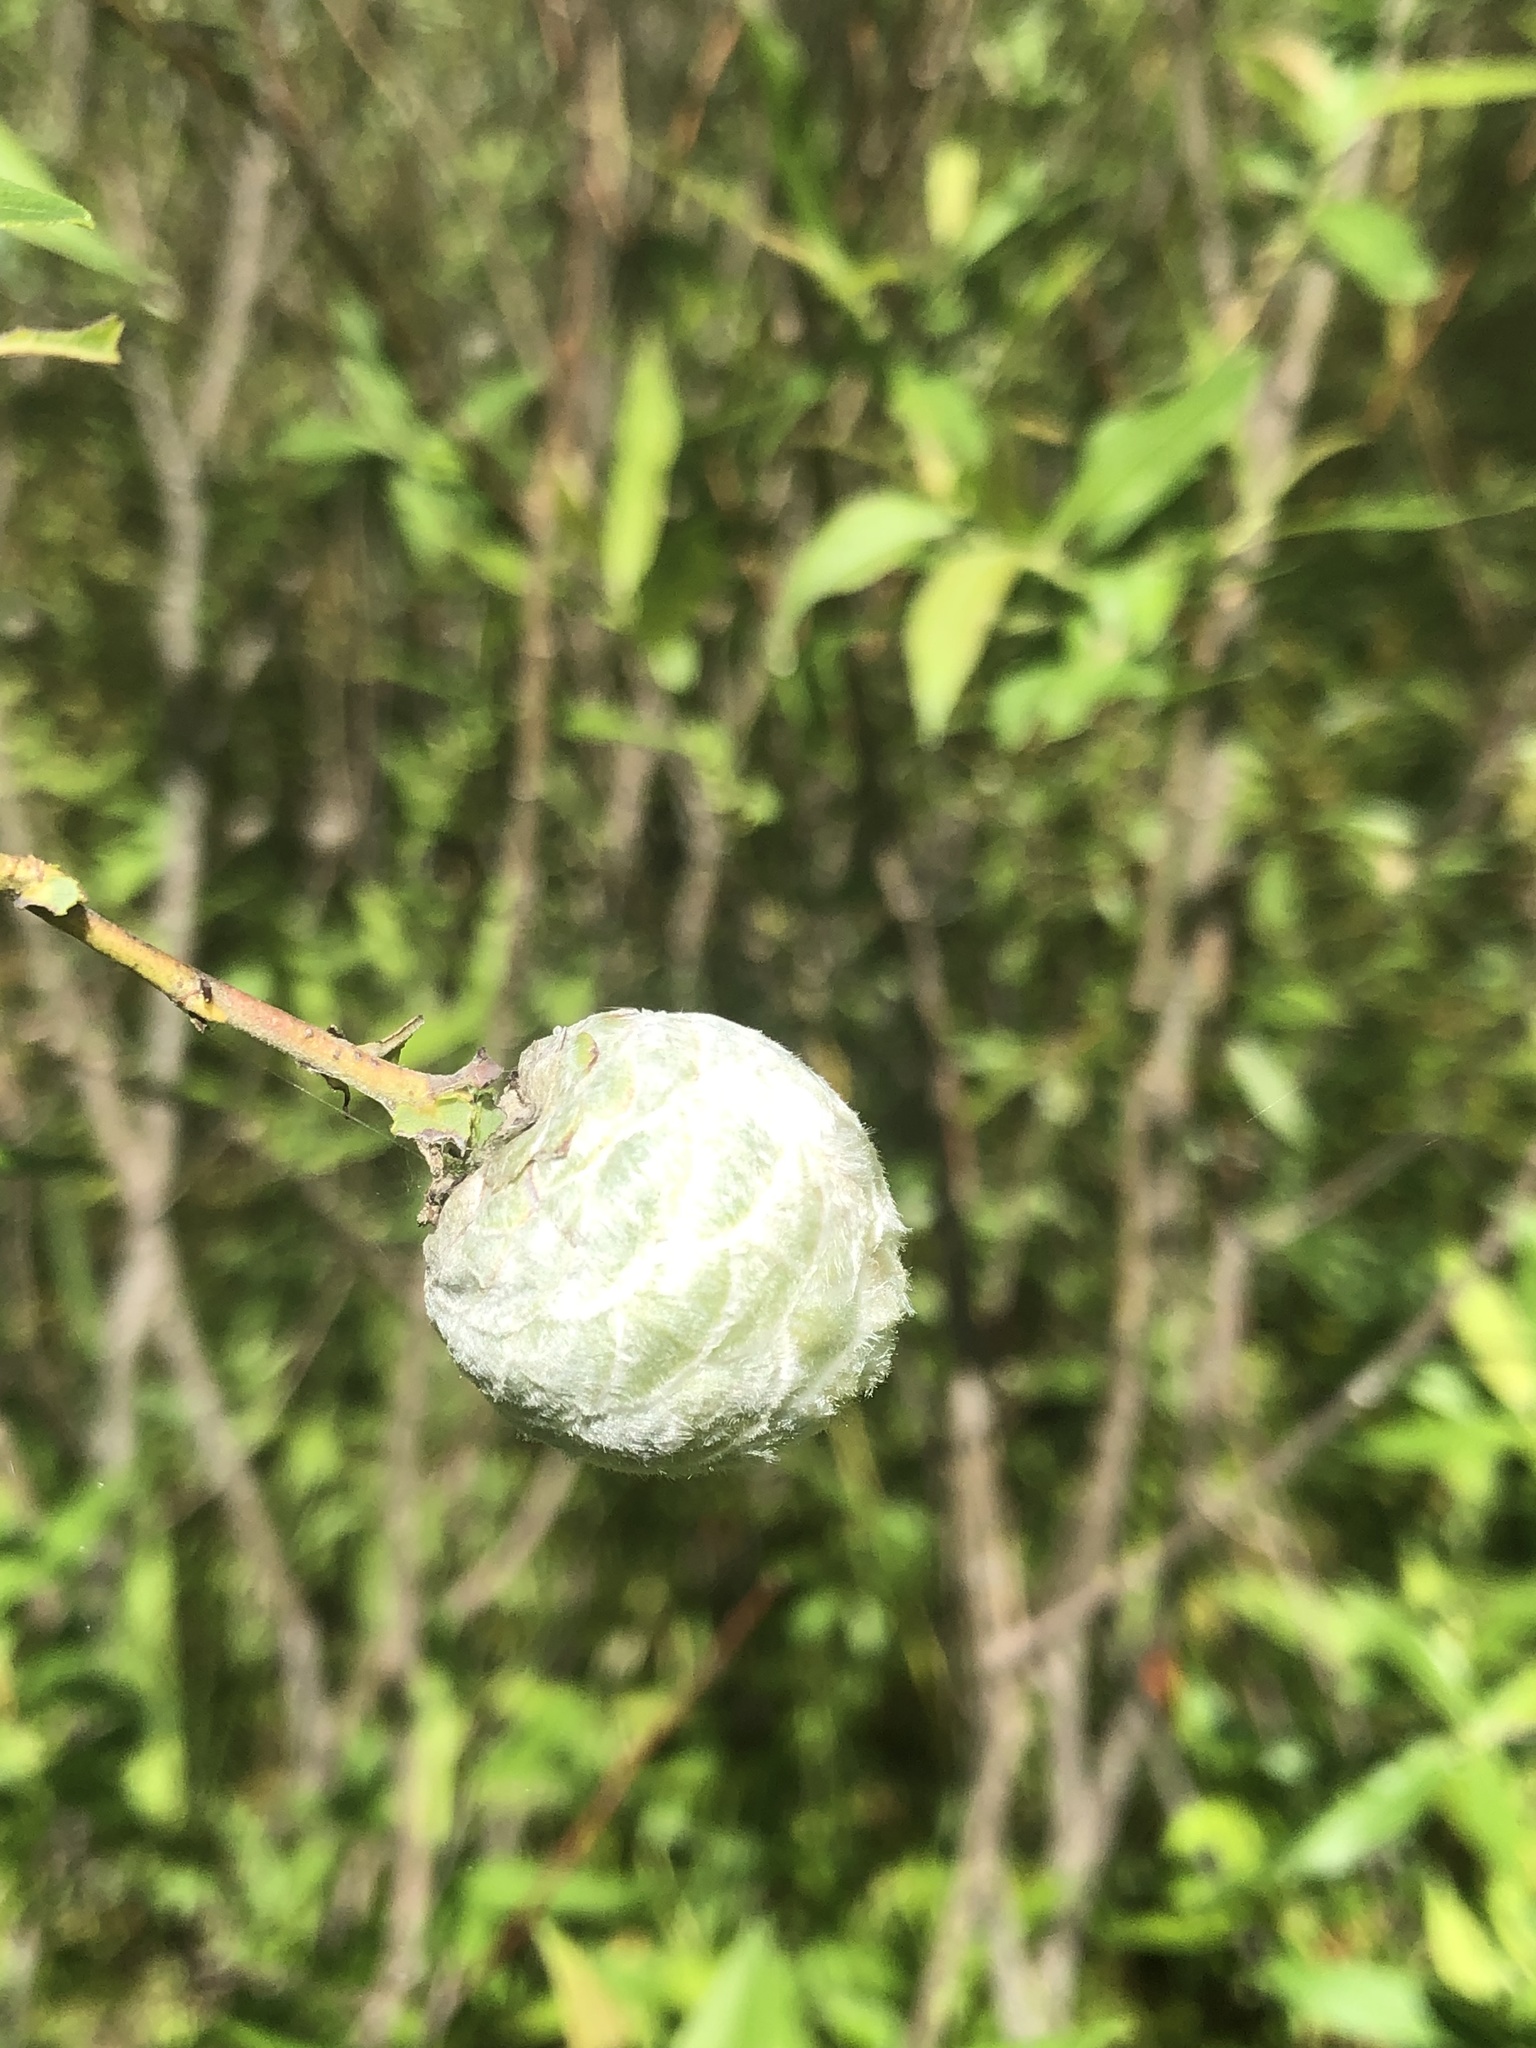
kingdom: Animalia
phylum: Arthropoda
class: Insecta
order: Diptera
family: Cecidomyiidae
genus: Rabdophaga
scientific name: Rabdophaga strobiloides
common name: Willow pinecone gall midge
